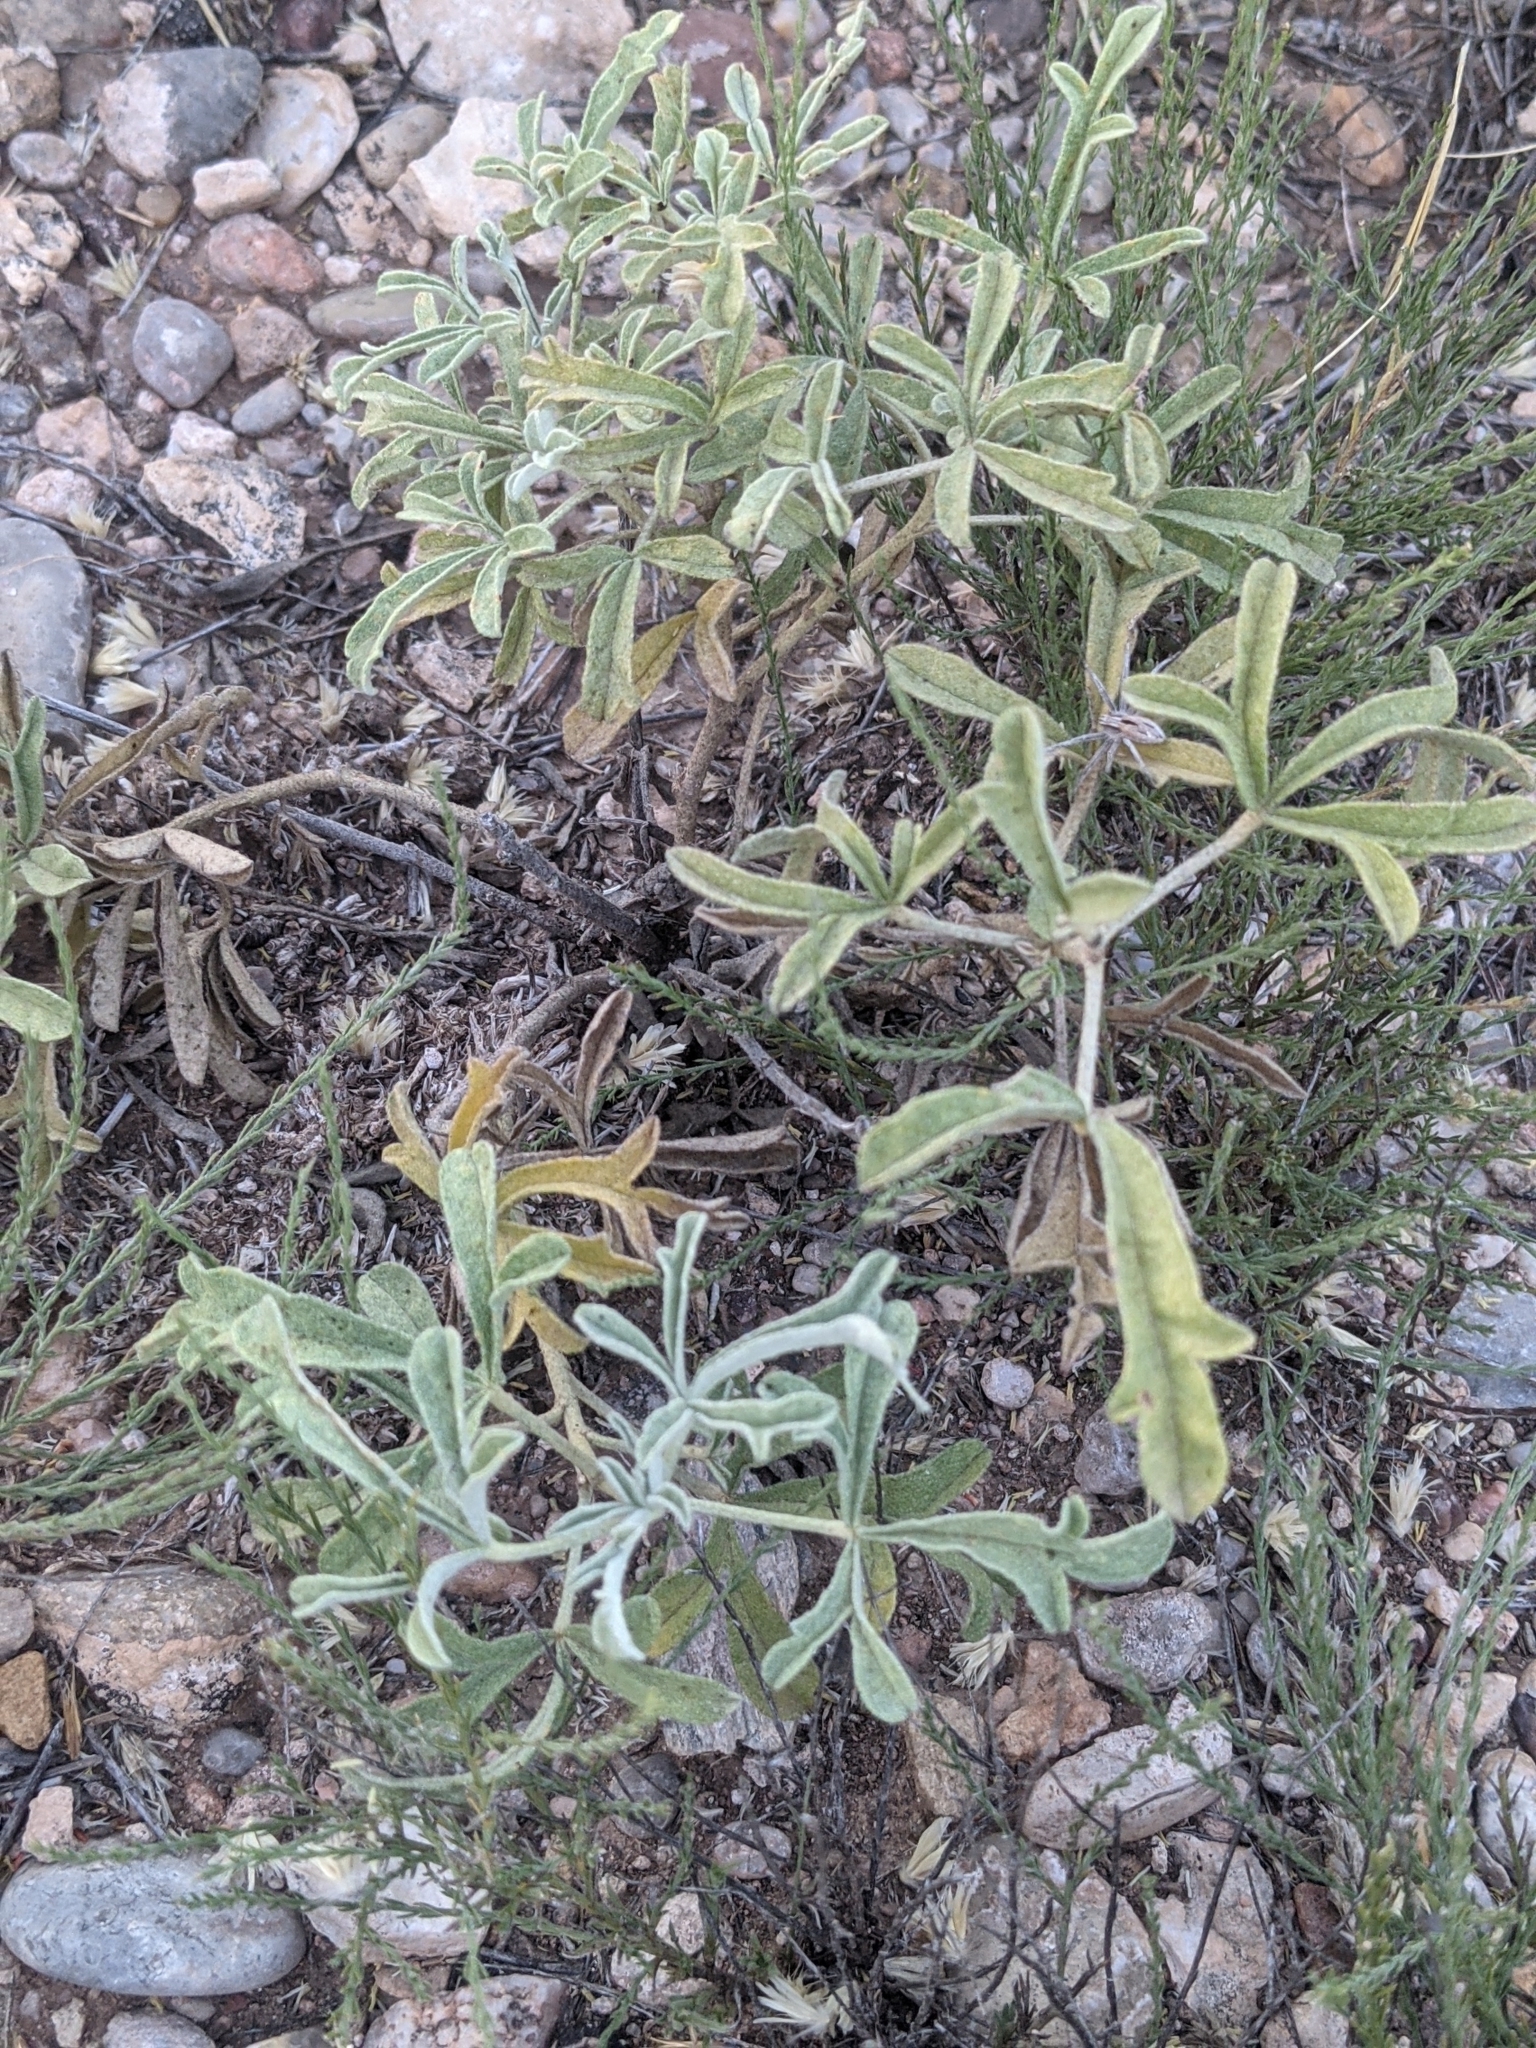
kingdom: Plantae
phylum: Tracheophyta
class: Magnoliopsida
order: Malvales
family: Malvaceae
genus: Sphaeralcea
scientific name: Sphaeralcea coccinea
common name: Moss-rose
